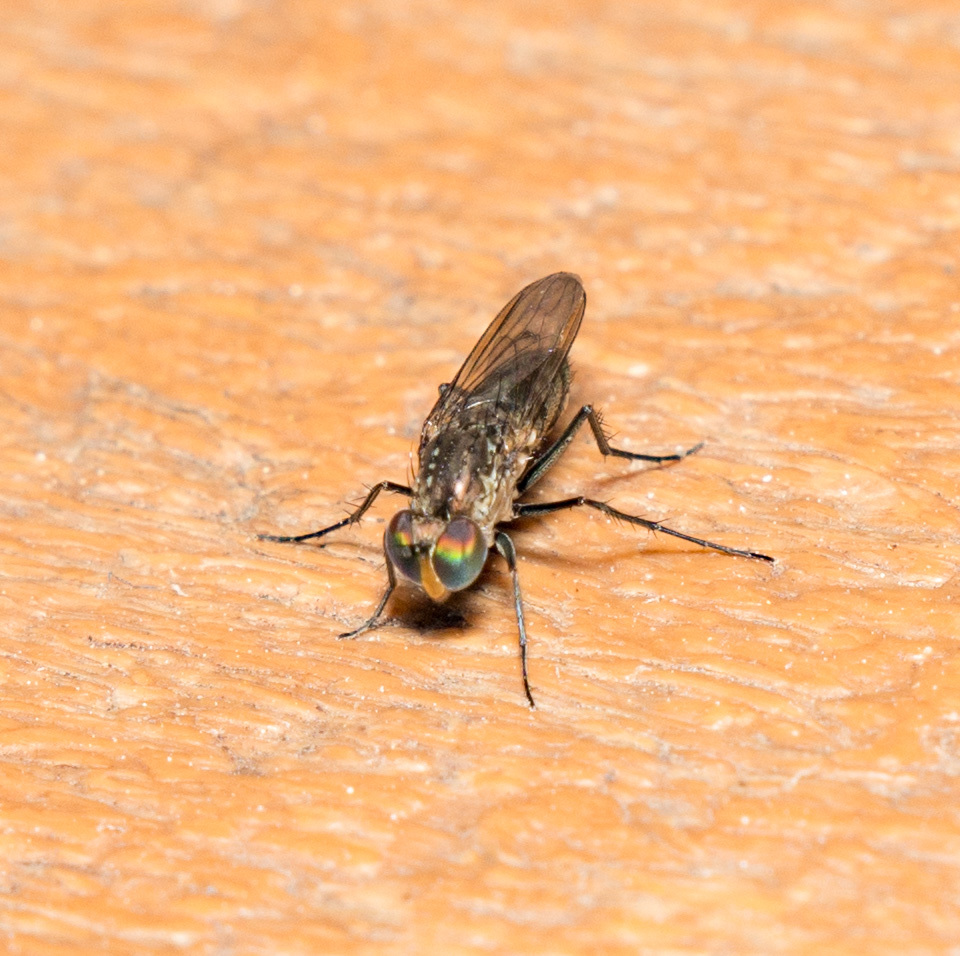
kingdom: Animalia
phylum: Arthropoda
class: Insecta
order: Diptera
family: Dolichopodidae
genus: Tachytrechus
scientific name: Tachytrechus angustipennis
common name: Long-legged fly
